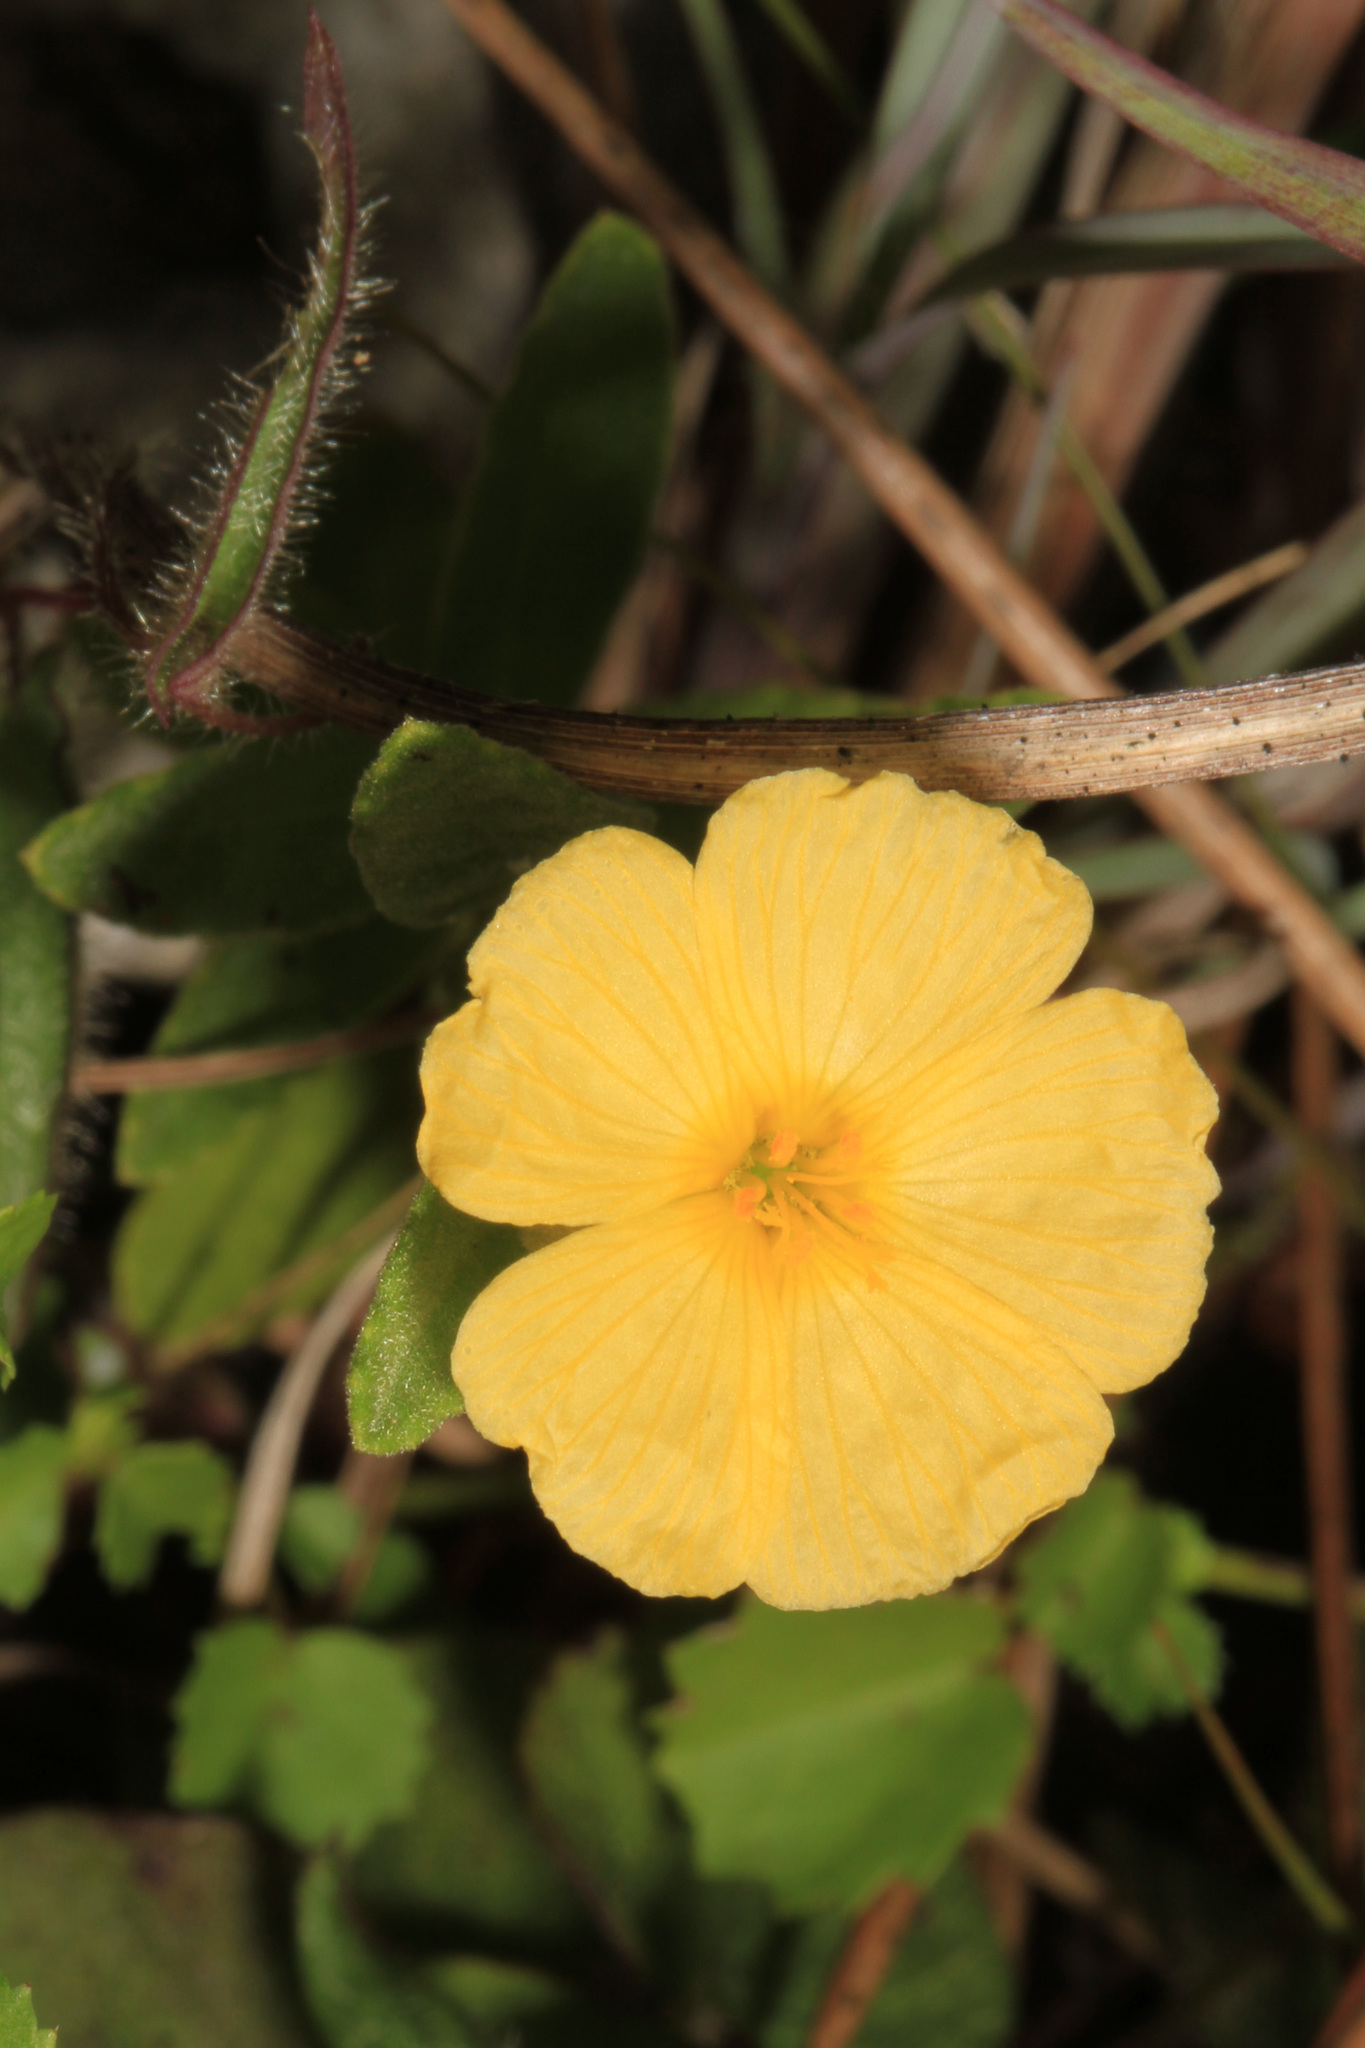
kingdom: Plantae
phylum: Tracheophyta
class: Magnoliopsida
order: Malpighiales
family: Turneraceae
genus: Piriqueta
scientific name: Piriqueta cistoides
